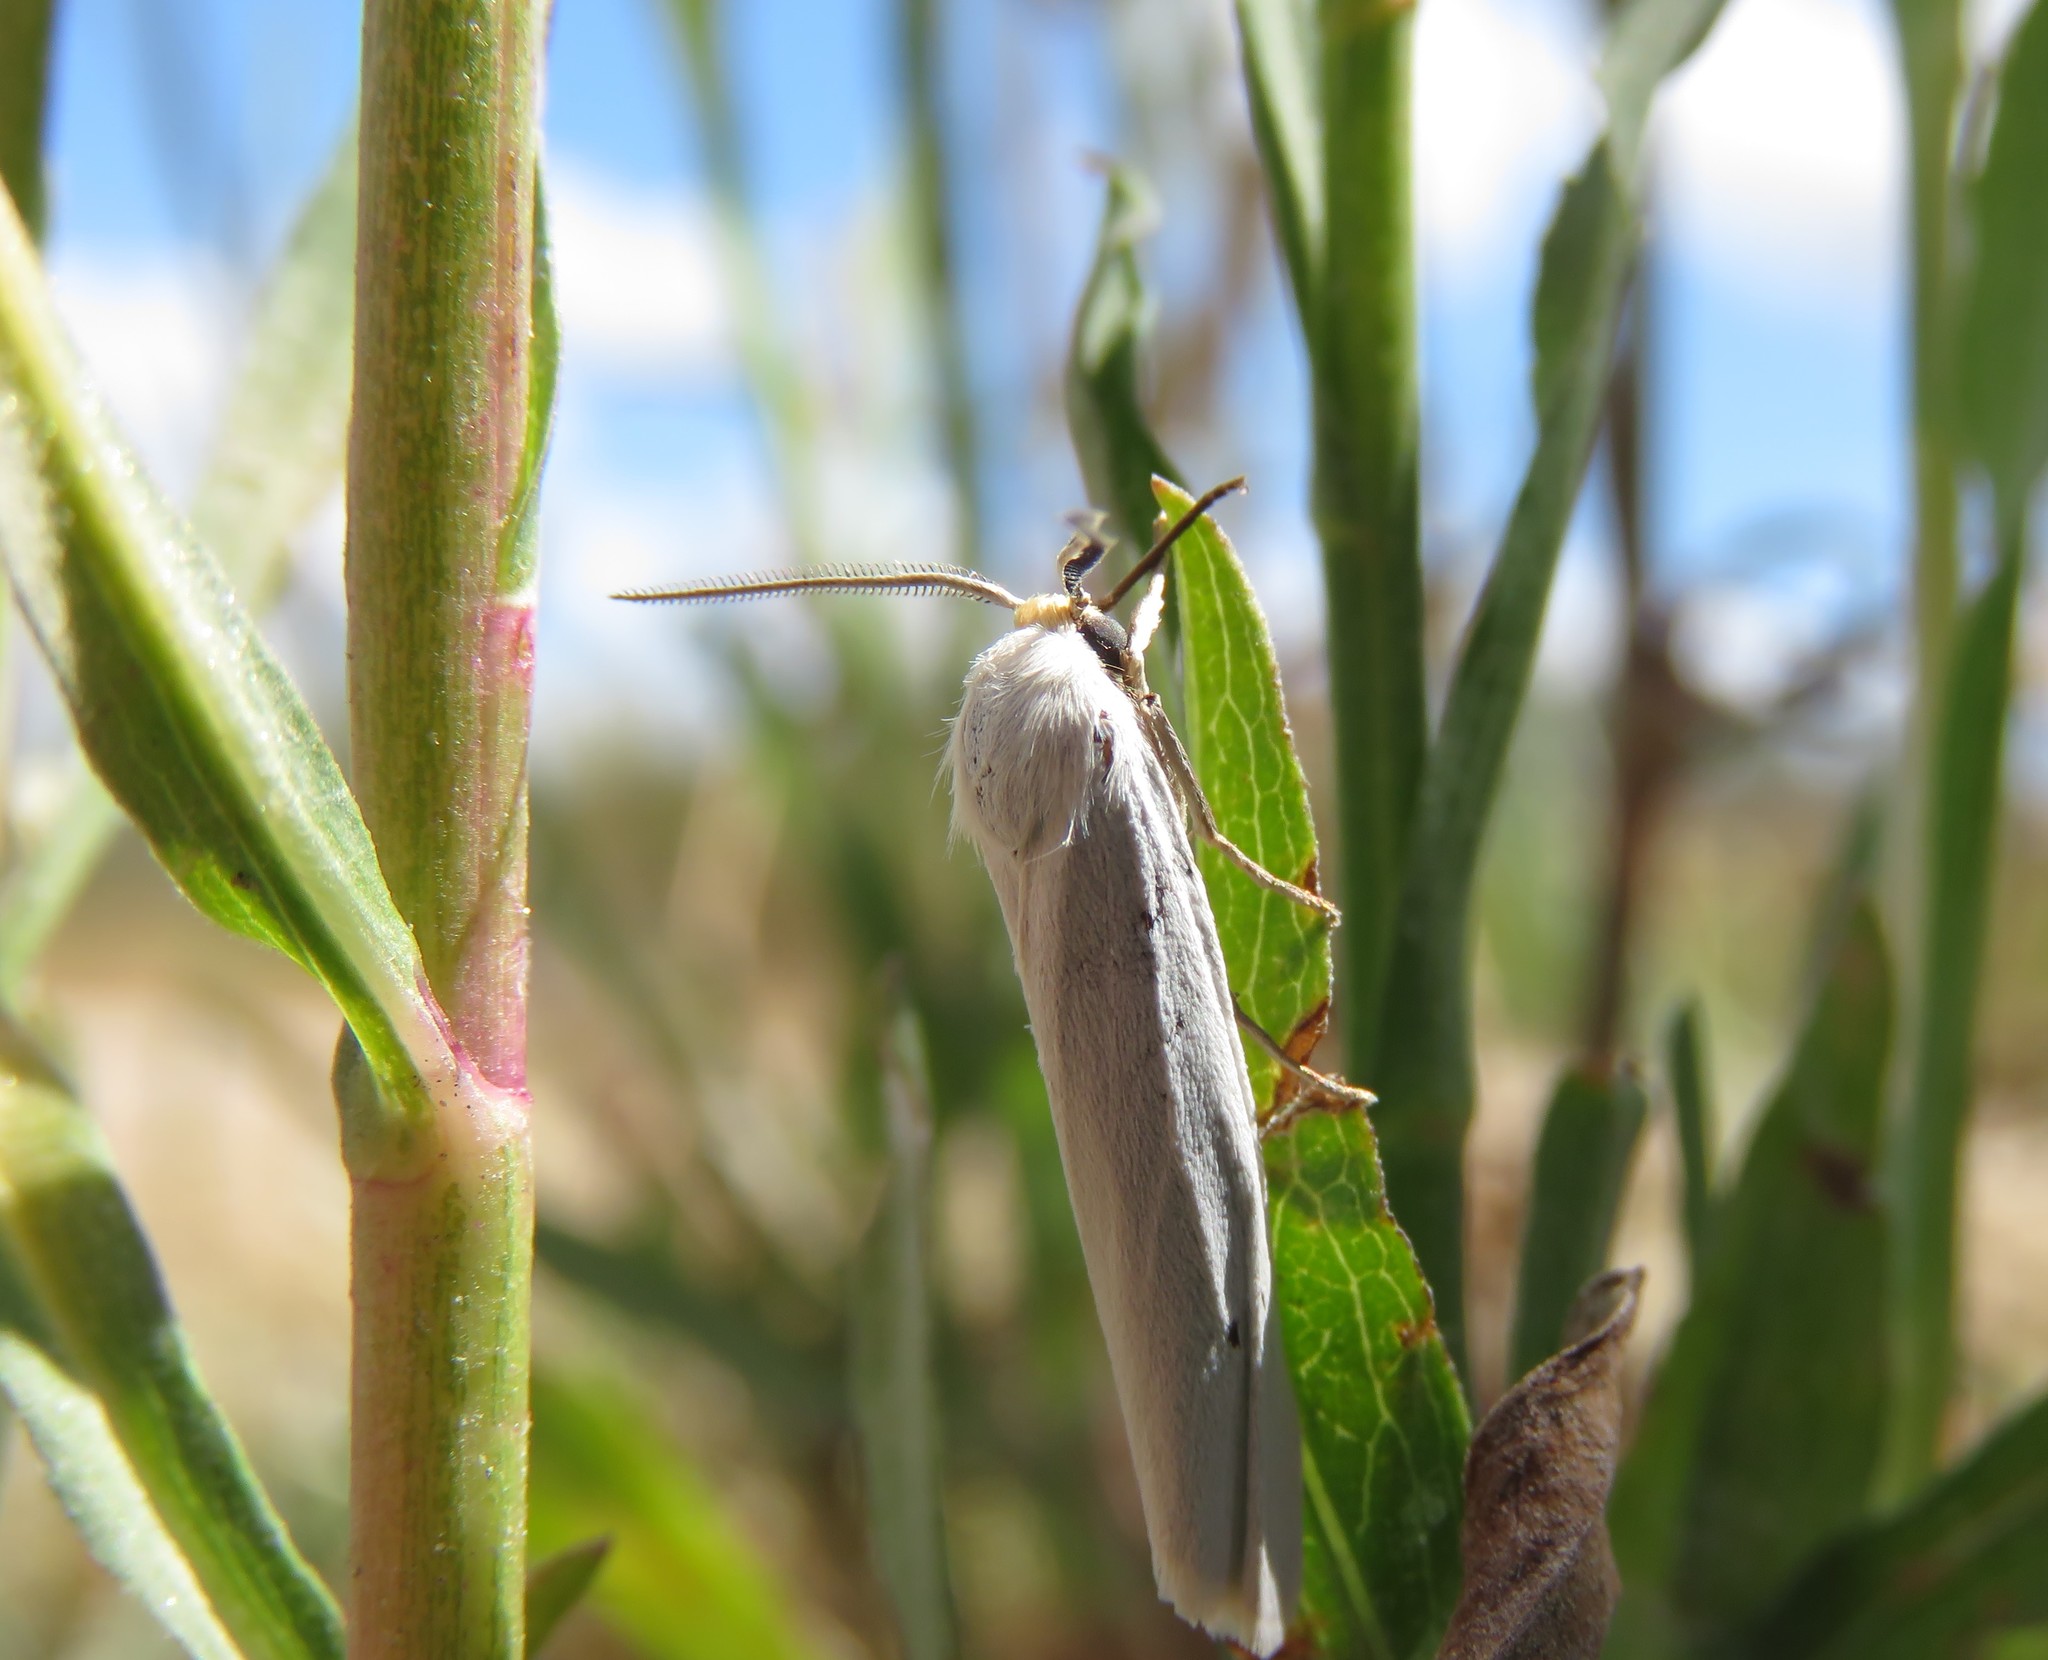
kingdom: Animalia
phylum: Arthropoda
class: Insecta
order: Lepidoptera
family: Erebidae
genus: Coscinia
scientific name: Coscinia cribraria
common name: Speckled footman
